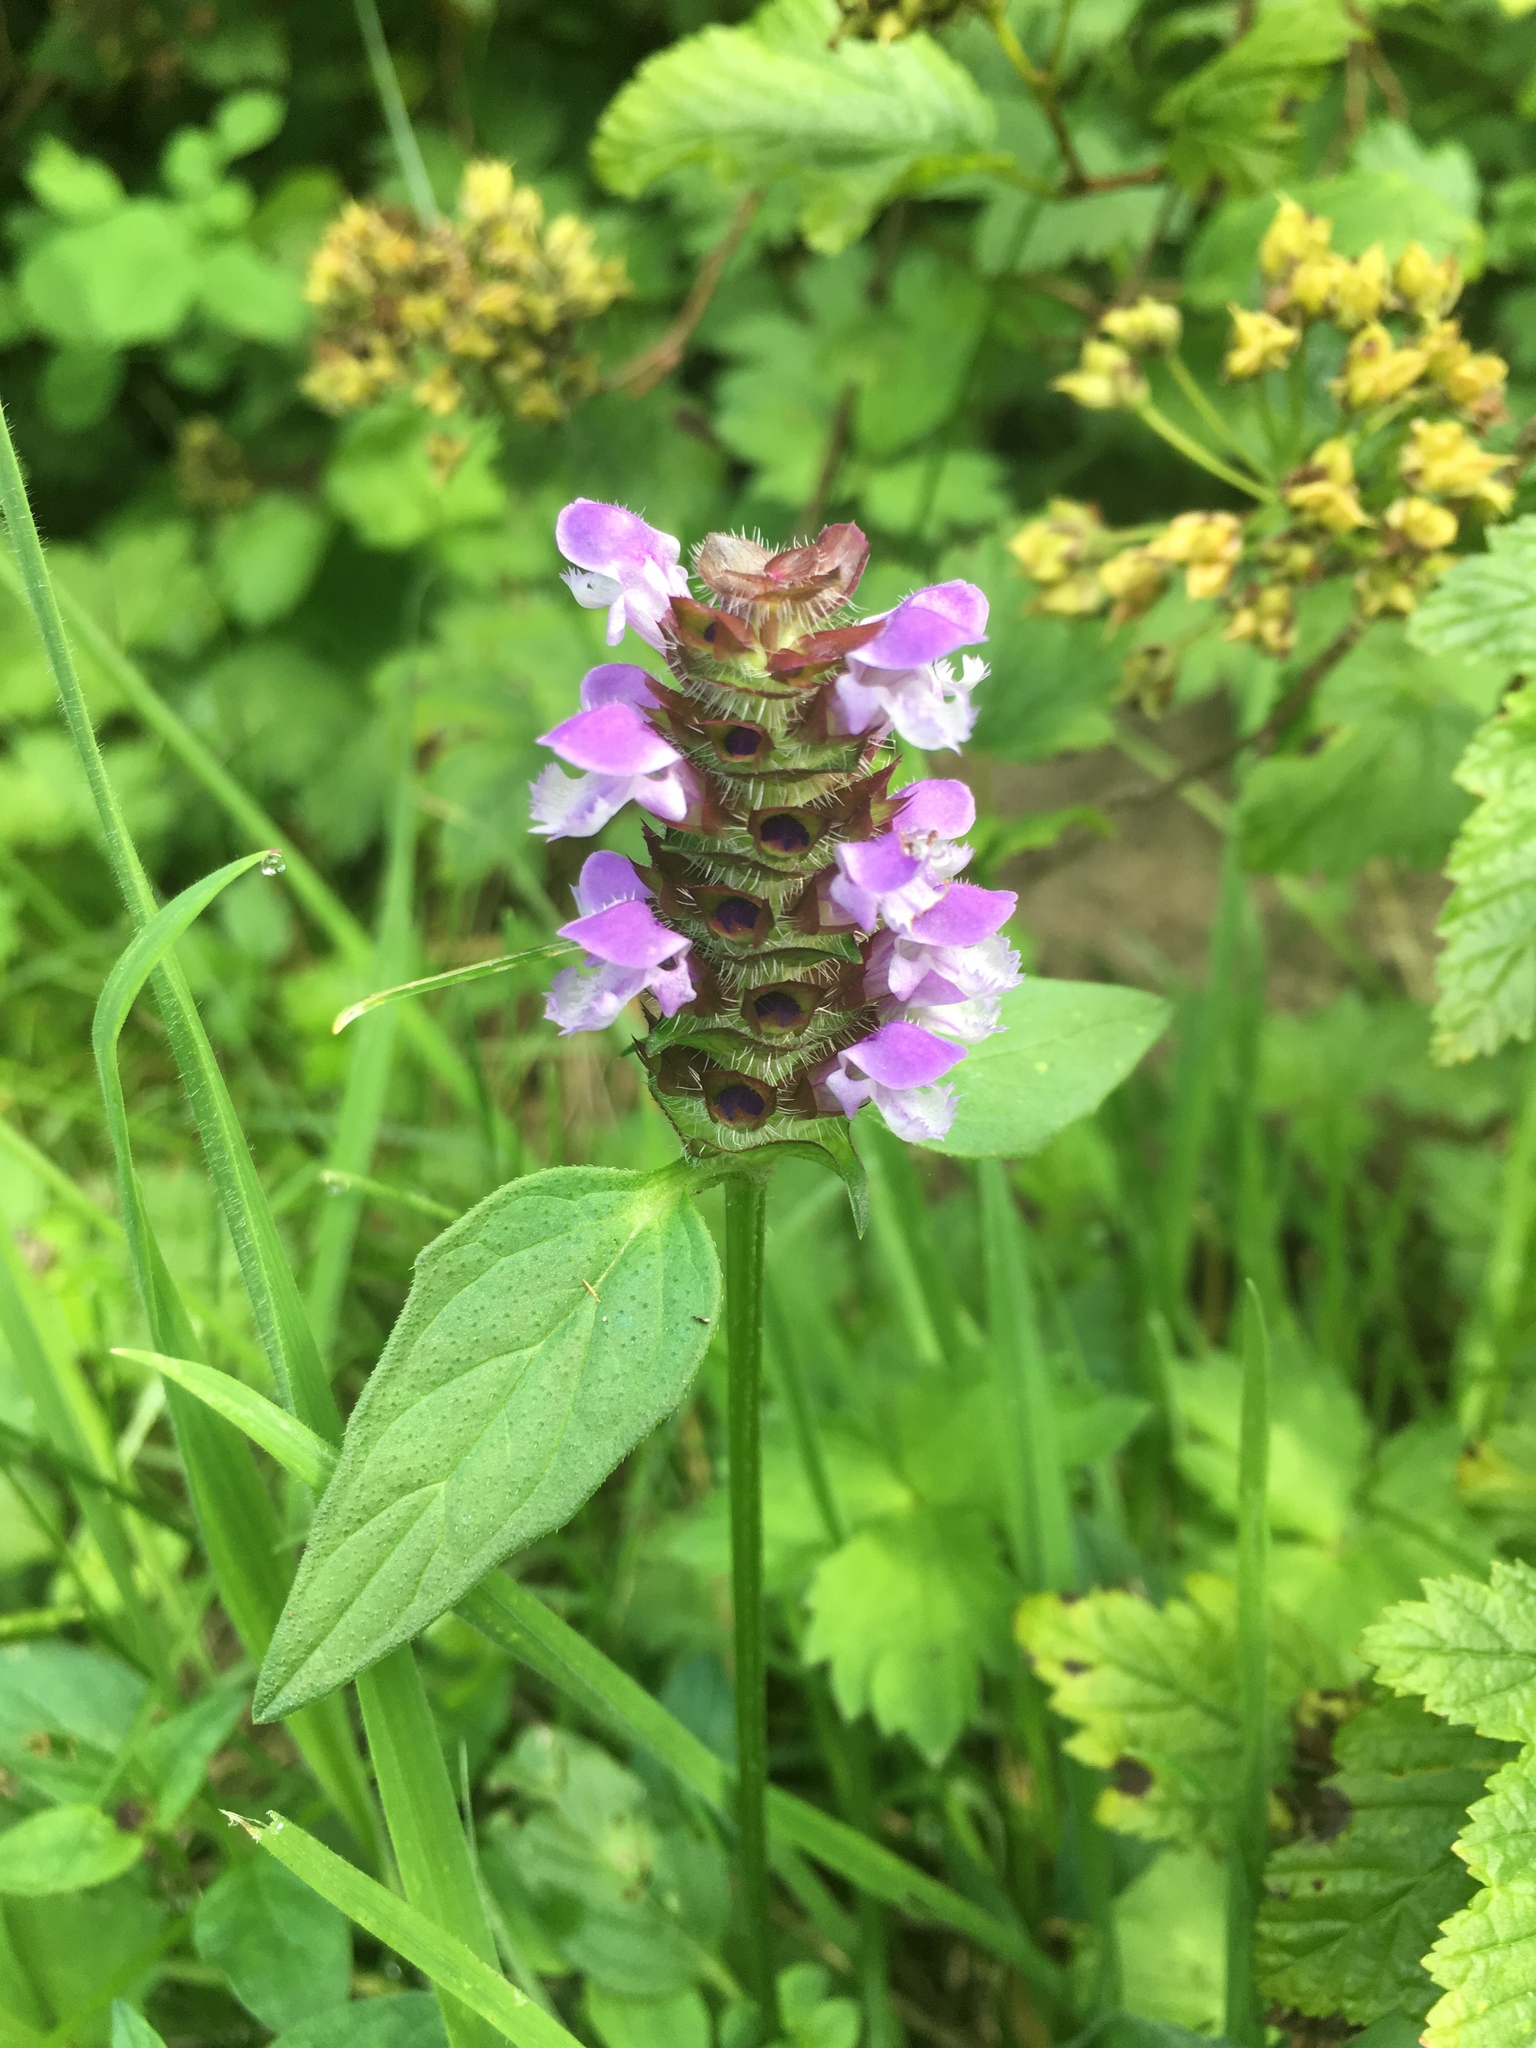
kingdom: Plantae
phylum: Tracheophyta
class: Magnoliopsida
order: Lamiales
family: Lamiaceae
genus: Prunella
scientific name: Prunella vulgaris
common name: Heal-all
